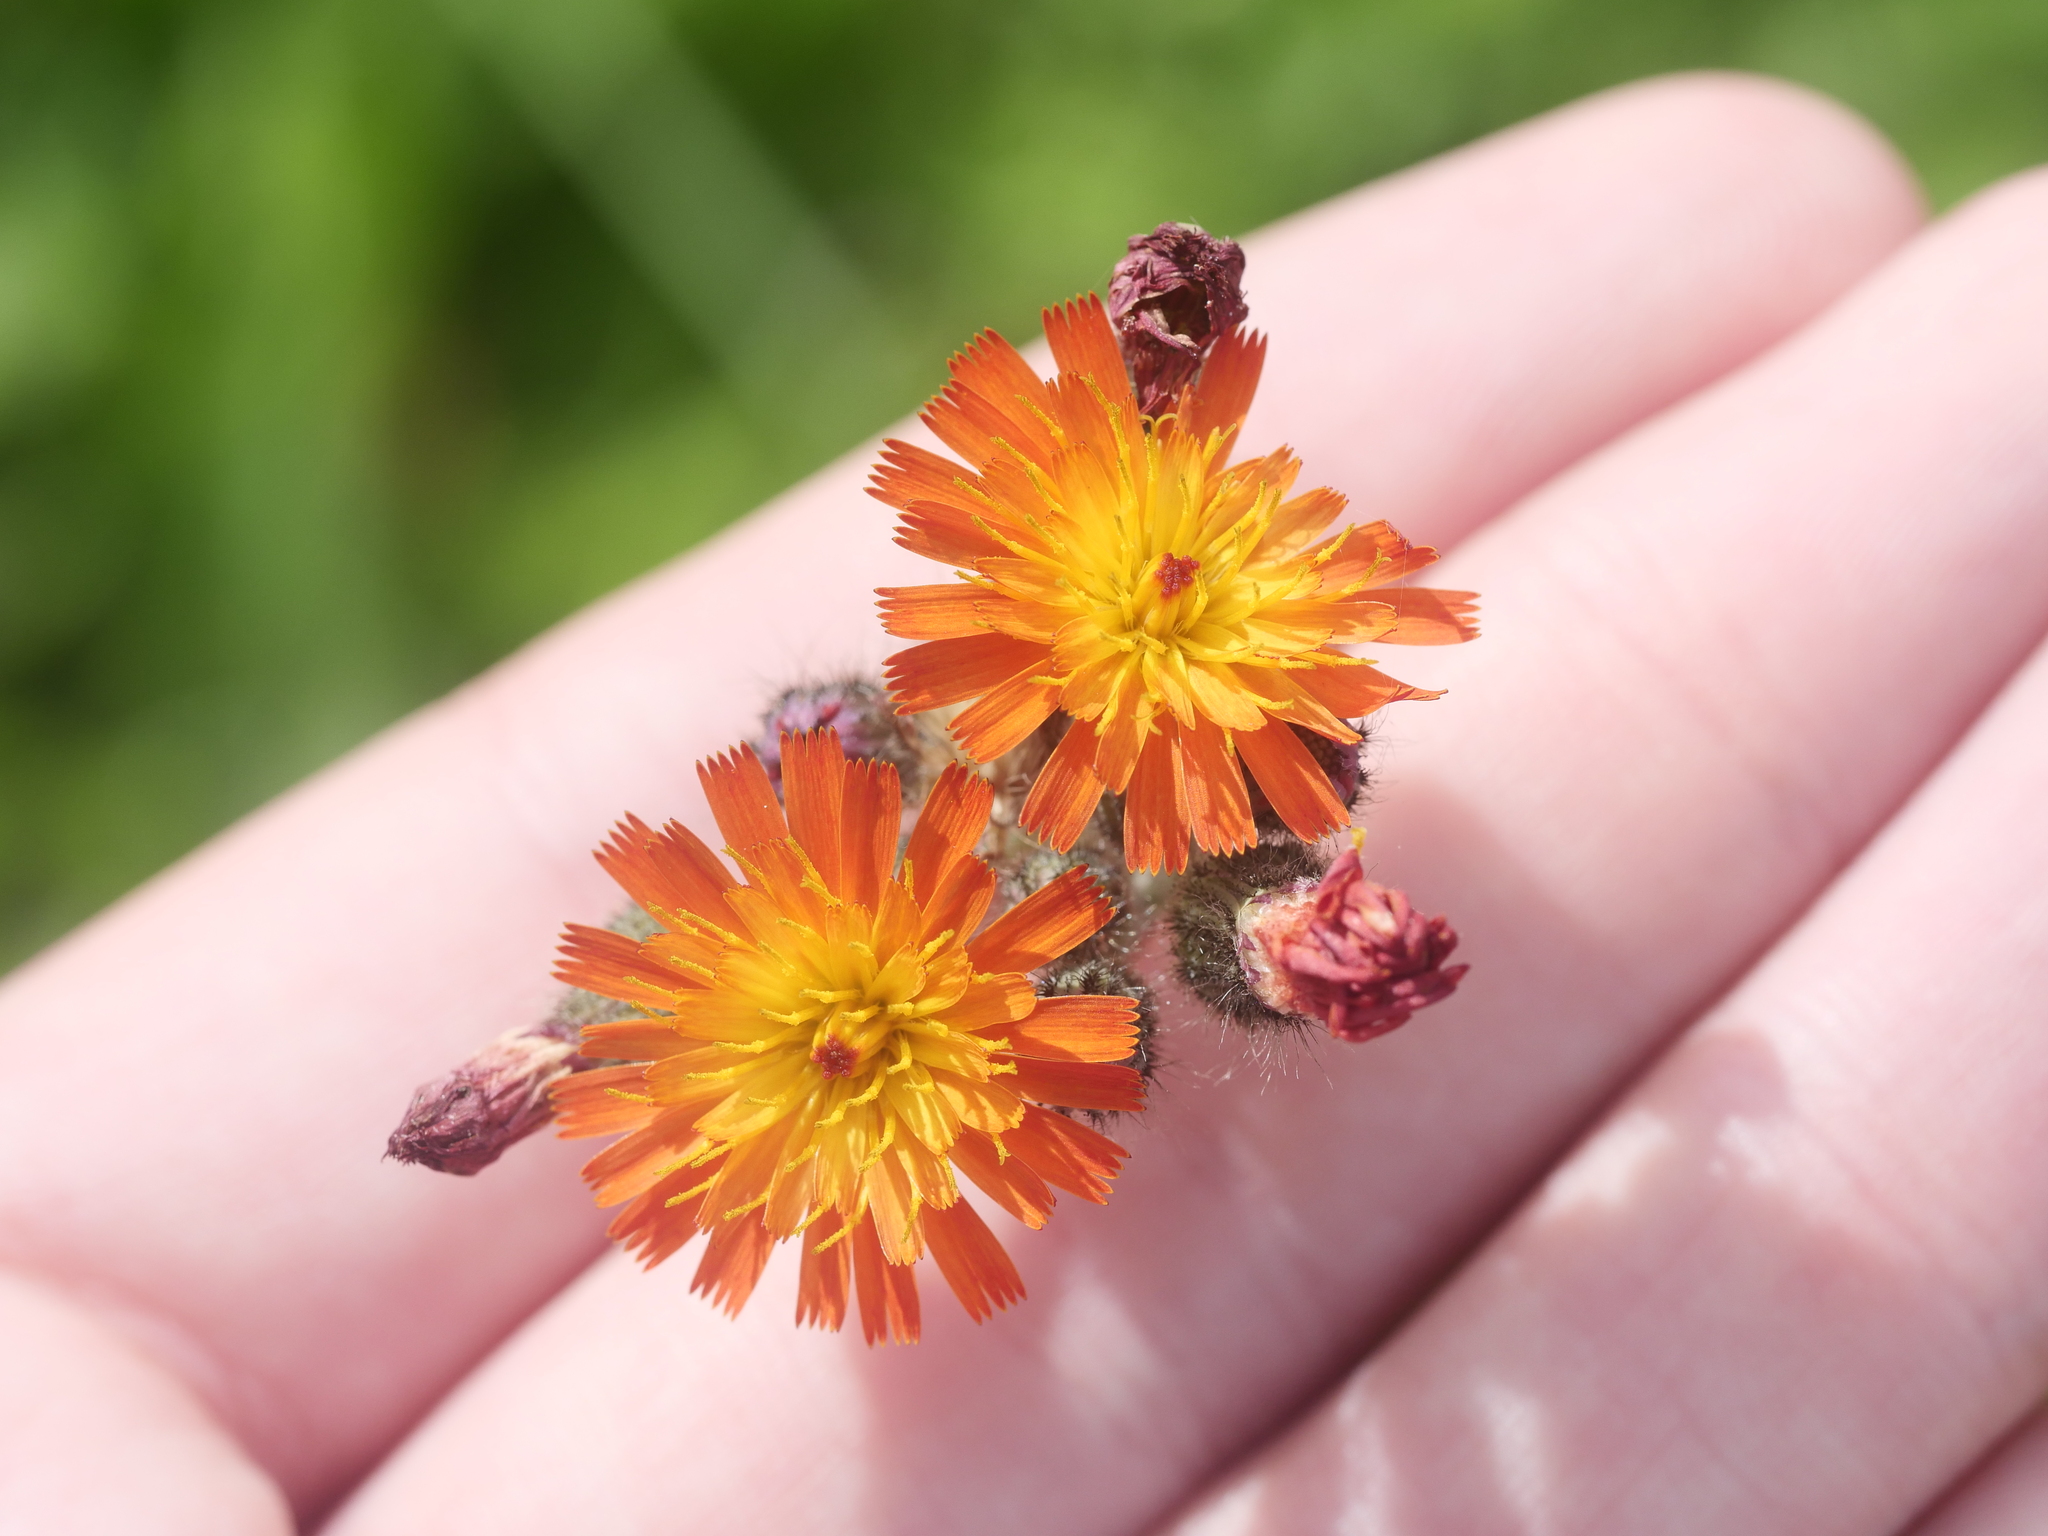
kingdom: Plantae
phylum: Tracheophyta
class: Magnoliopsida
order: Asterales
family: Asteraceae
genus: Pilosella
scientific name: Pilosella aurantiaca
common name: Fox-and-cubs
